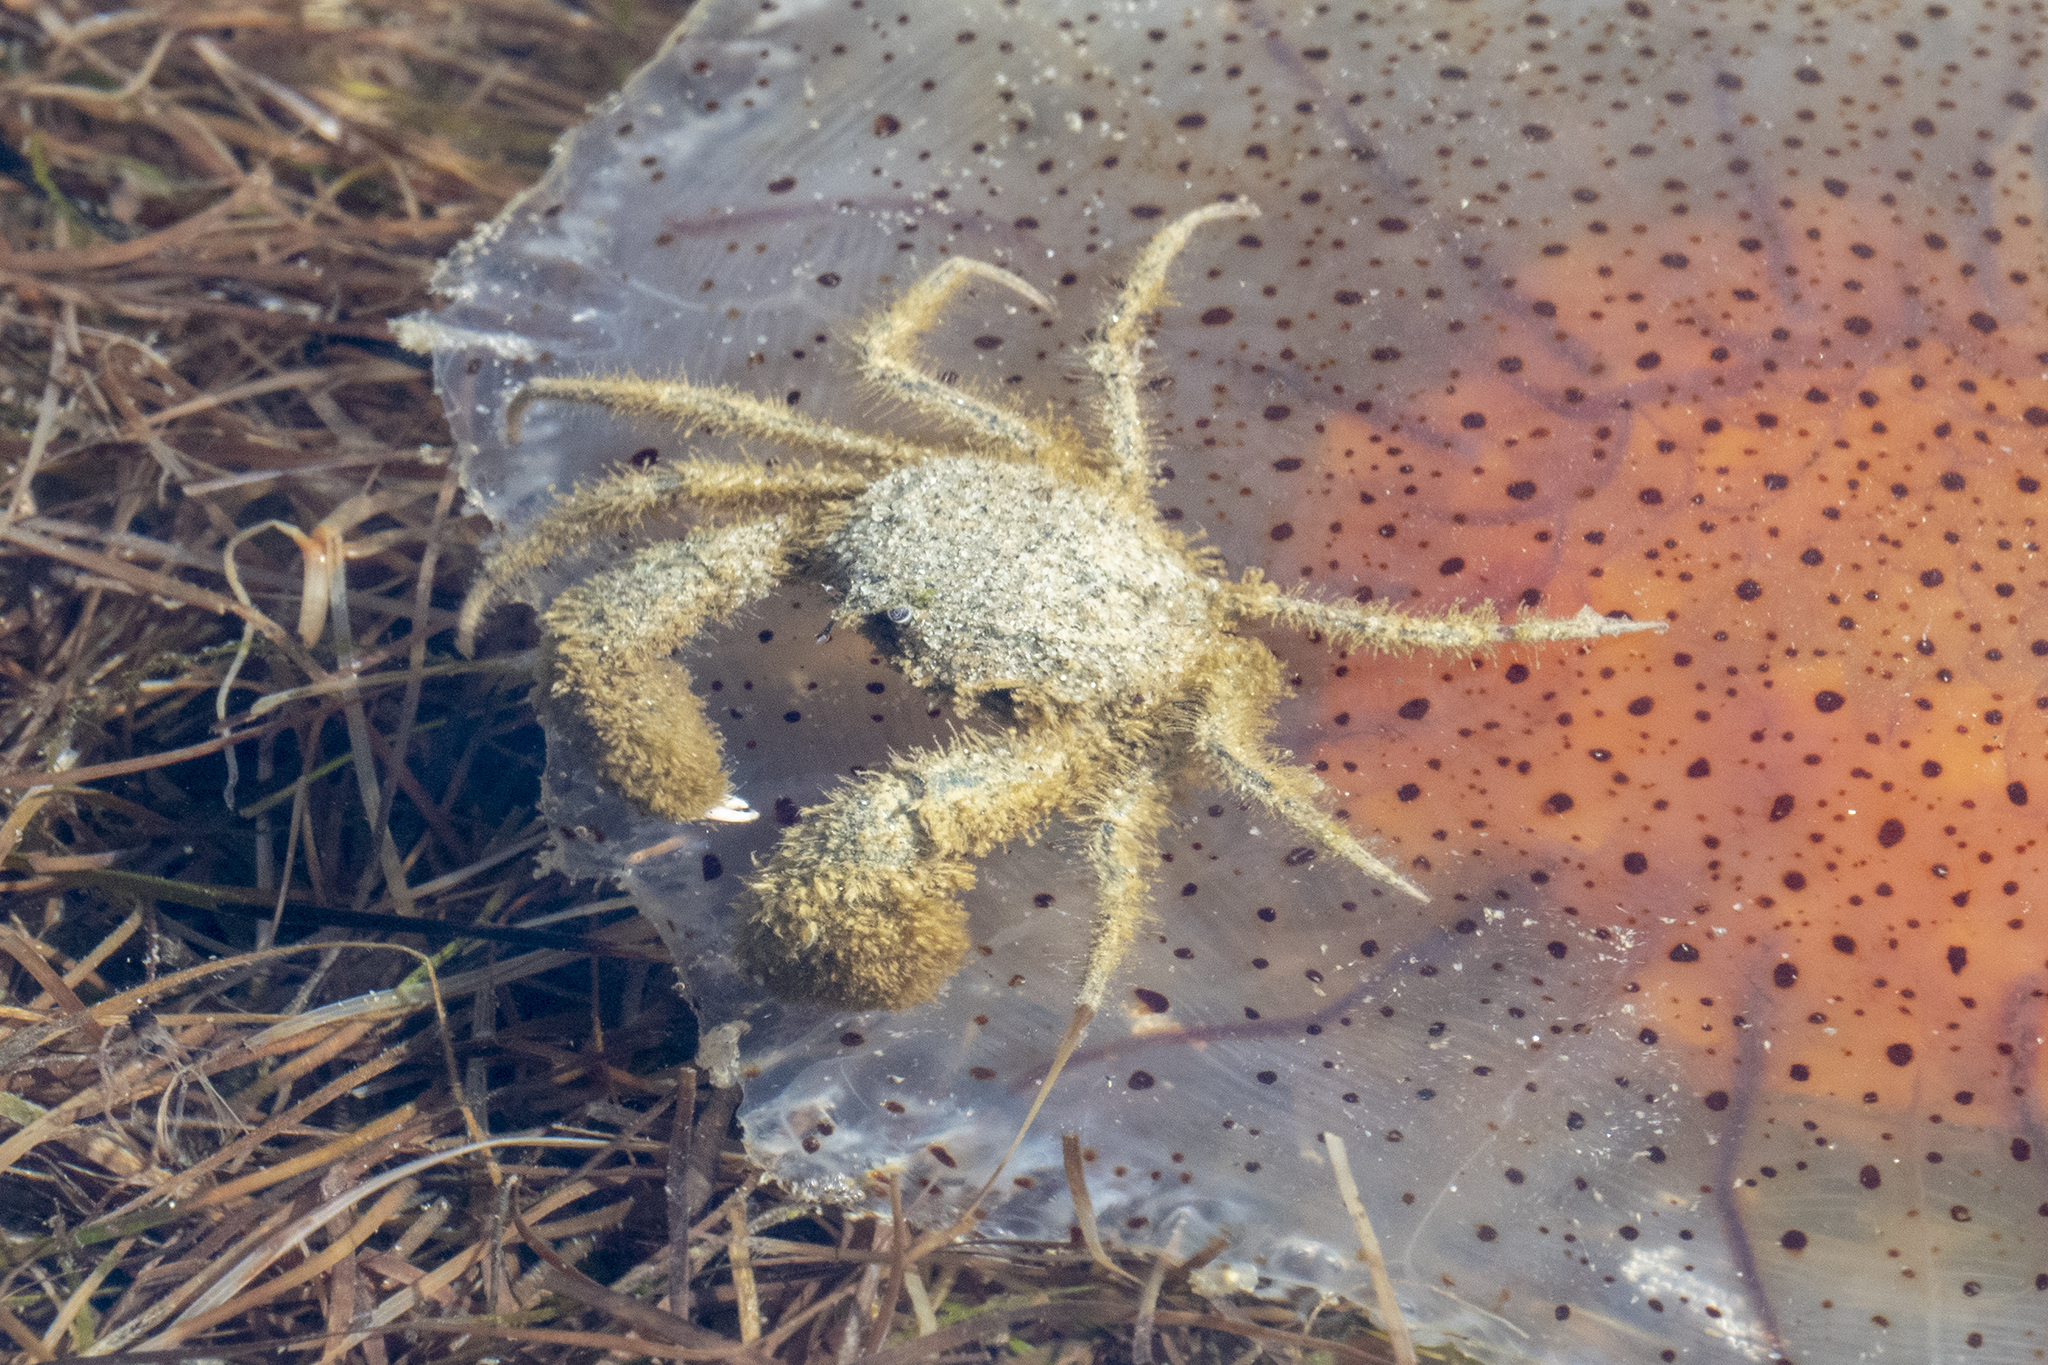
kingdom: Animalia
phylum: Arthropoda
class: Malacostraca
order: Decapoda
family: Hymenosomatidae
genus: Halicarcinus
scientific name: Halicarcinus whitei
